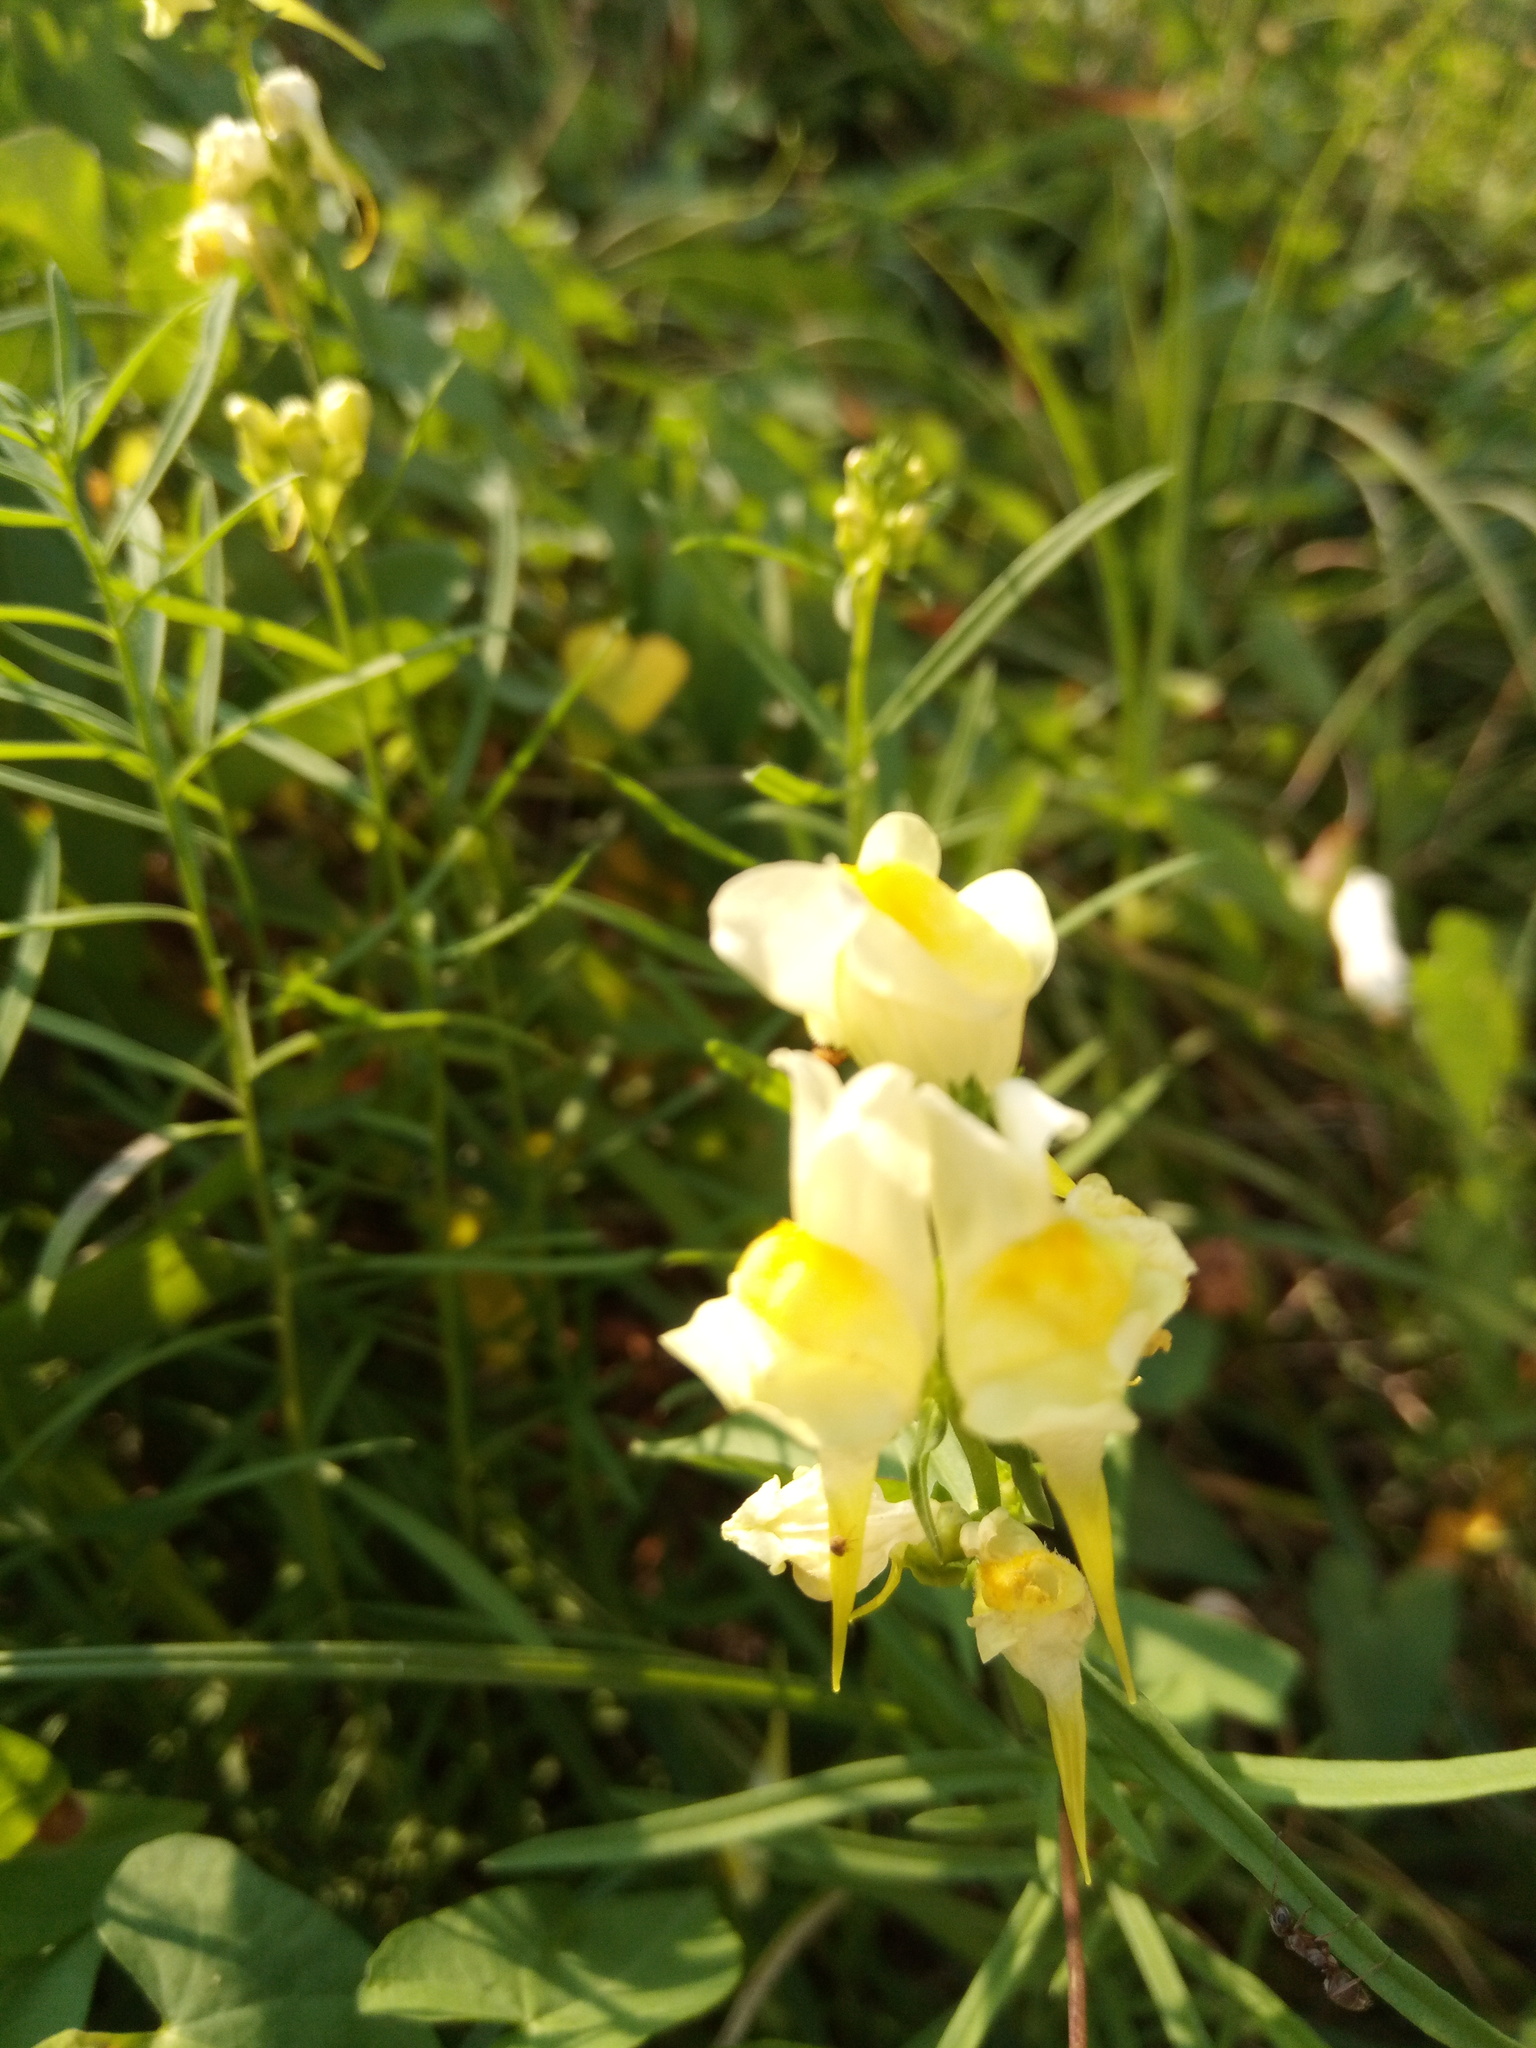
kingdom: Plantae
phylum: Tracheophyta
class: Magnoliopsida
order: Lamiales
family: Plantaginaceae
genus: Linaria
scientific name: Linaria vulgaris
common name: Butter and eggs
